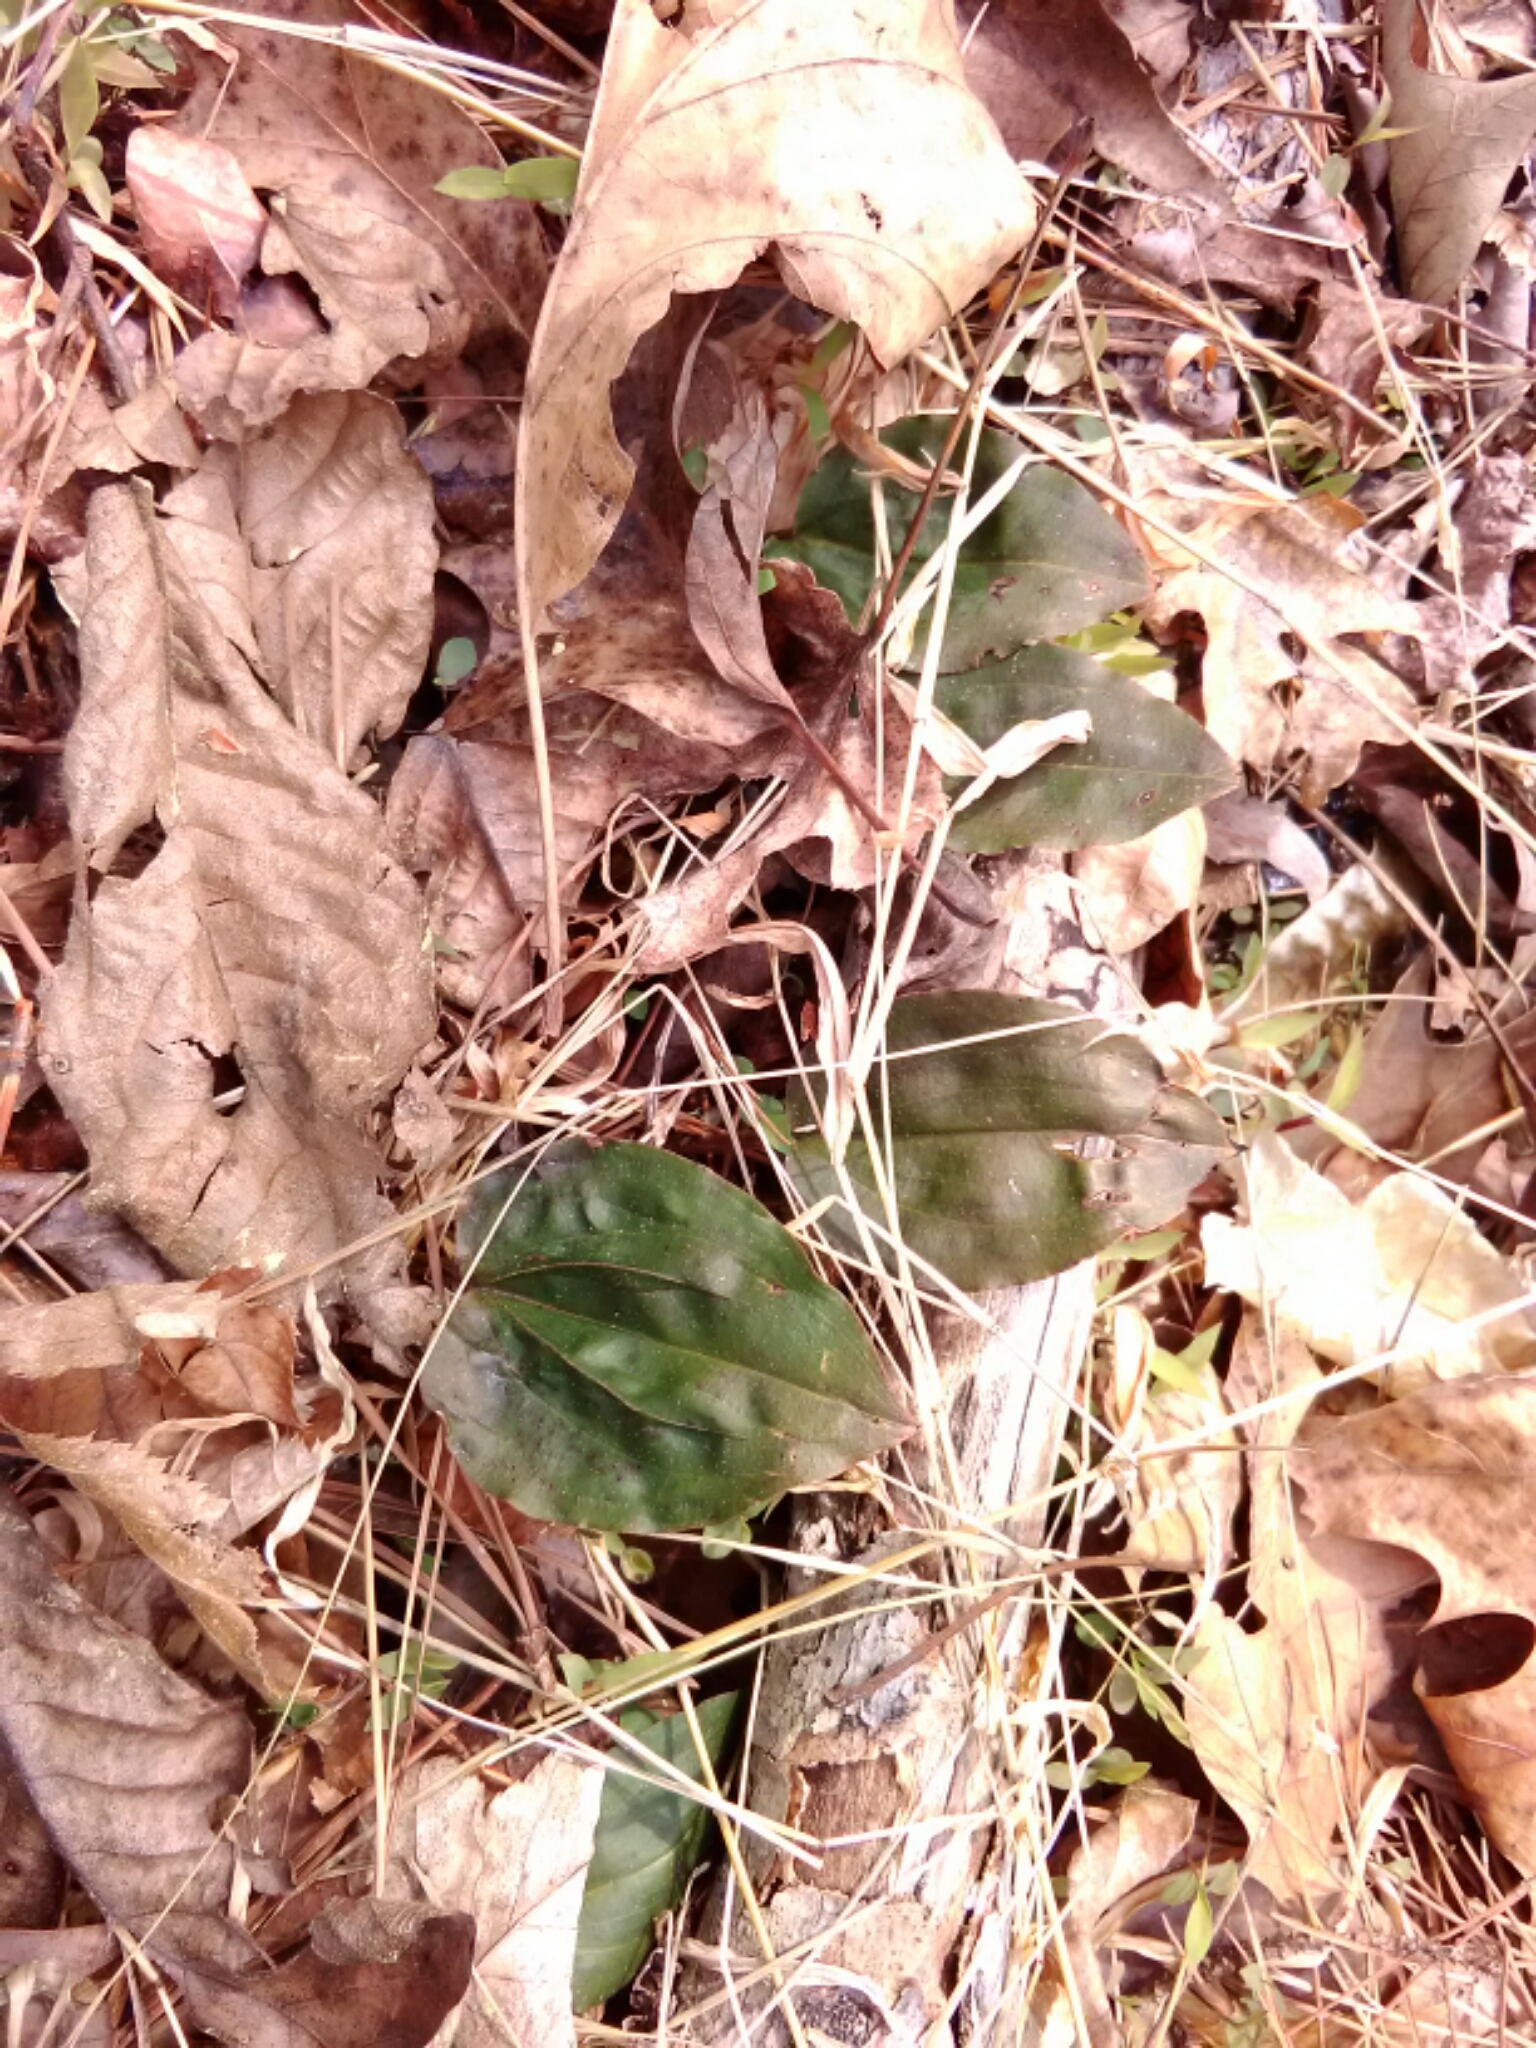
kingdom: Plantae
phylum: Tracheophyta
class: Liliopsida
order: Asparagales
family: Orchidaceae
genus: Tipularia
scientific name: Tipularia discolor
